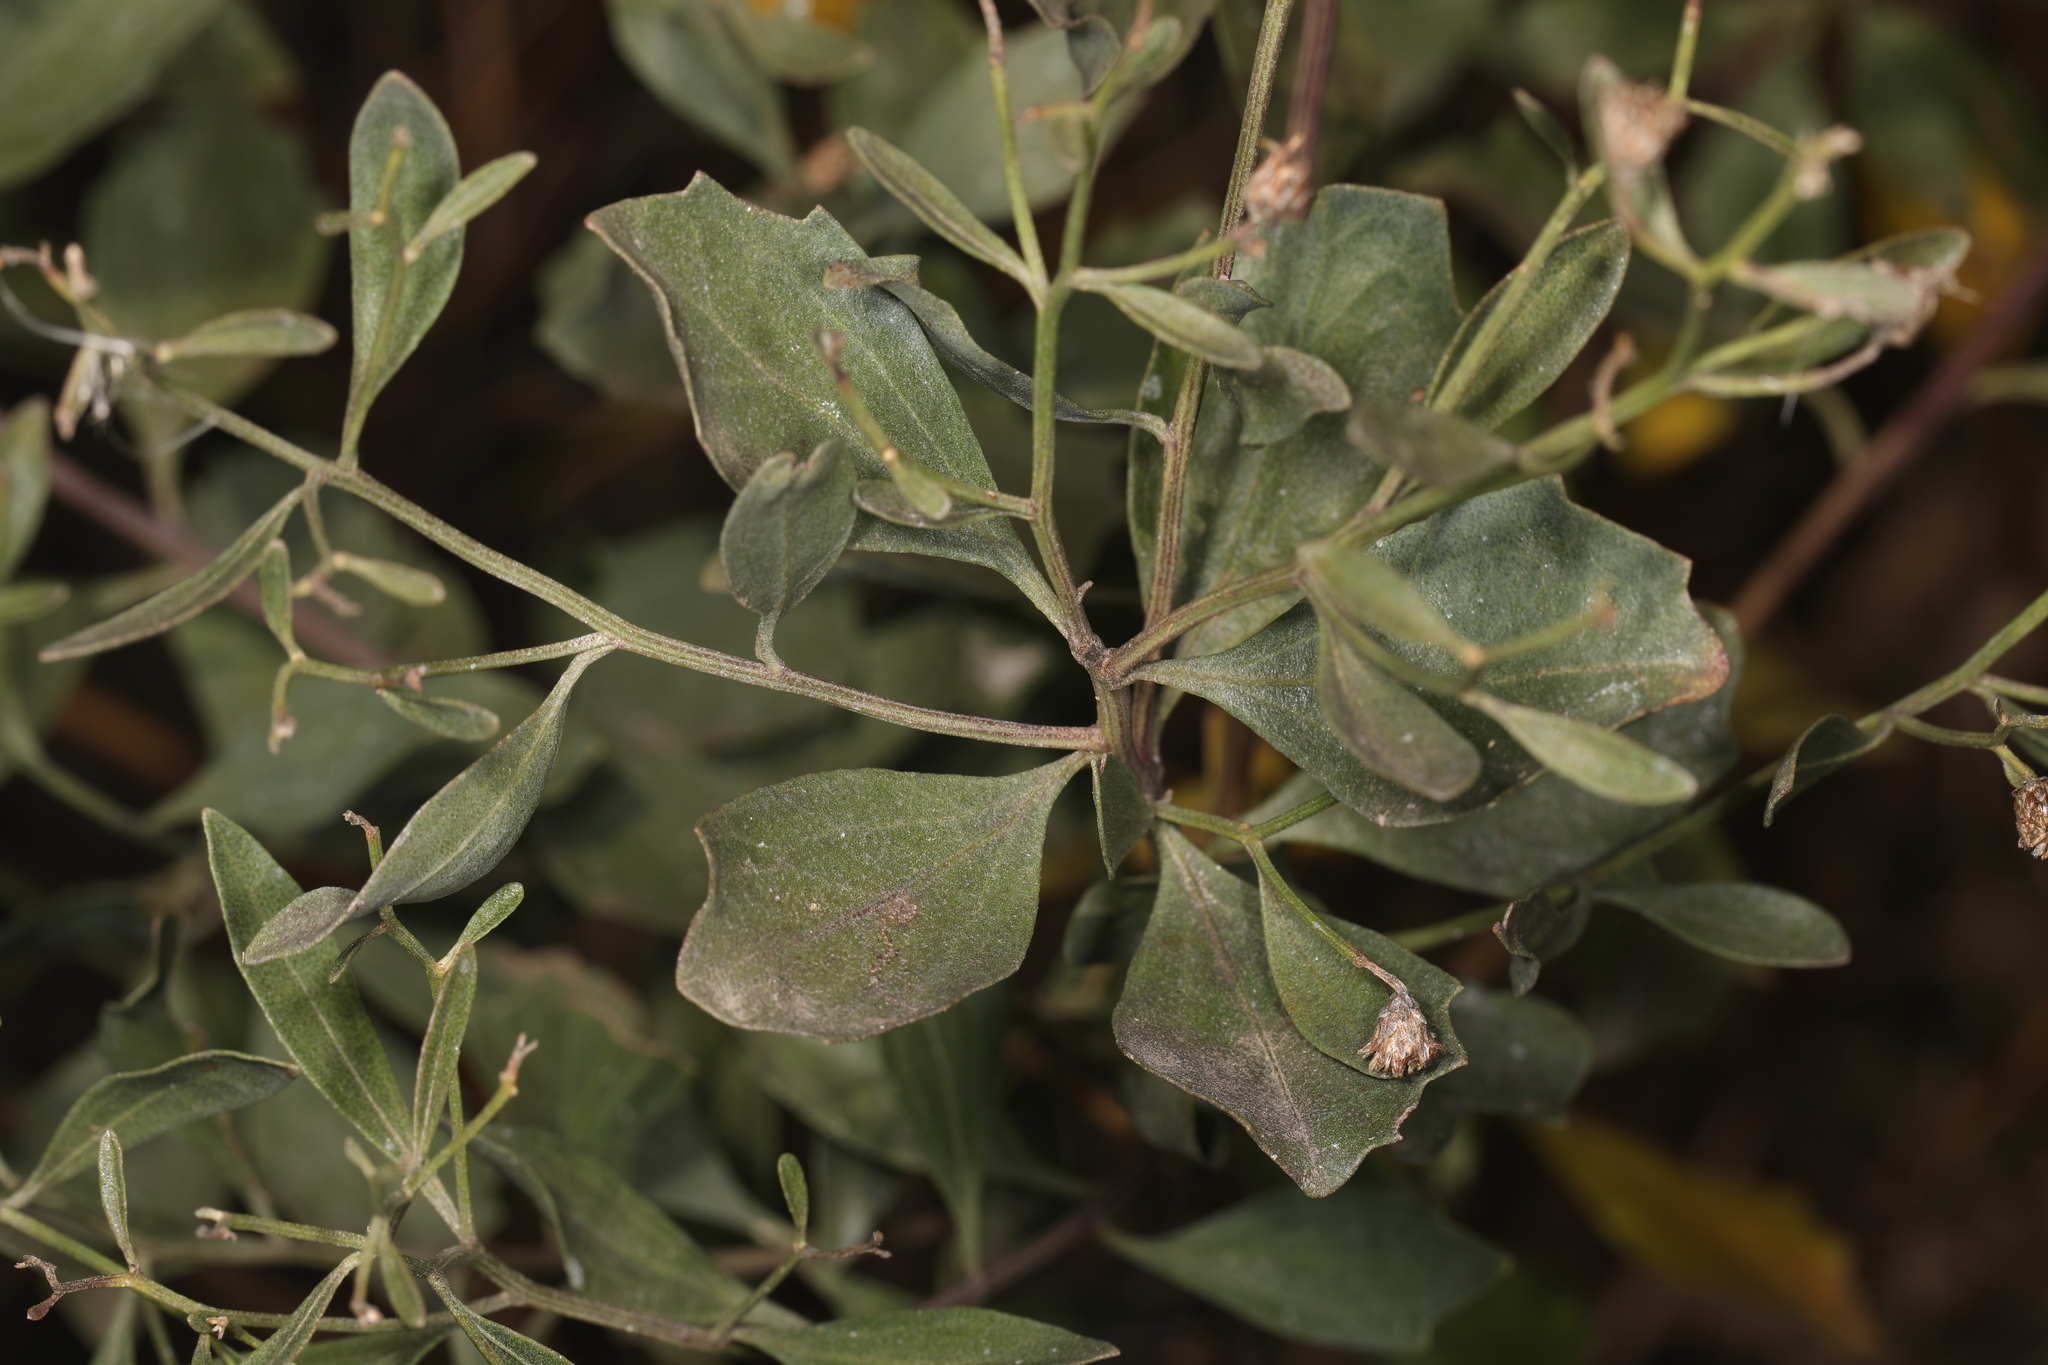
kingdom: Plantae
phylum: Tracheophyta
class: Magnoliopsida
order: Asterales
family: Asteraceae
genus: Baccharis
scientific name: Baccharis halimifolia
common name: Eastern baccharis
